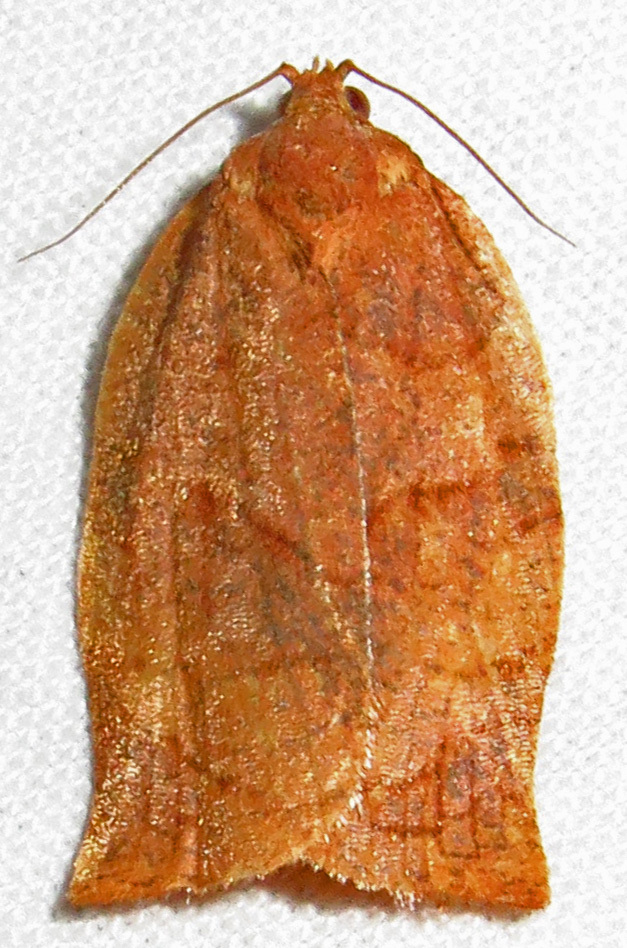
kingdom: Animalia
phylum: Arthropoda
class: Insecta
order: Lepidoptera
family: Tortricidae
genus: Choristoneura
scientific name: Choristoneura parallela
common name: Parallel-banded leafroller moth
